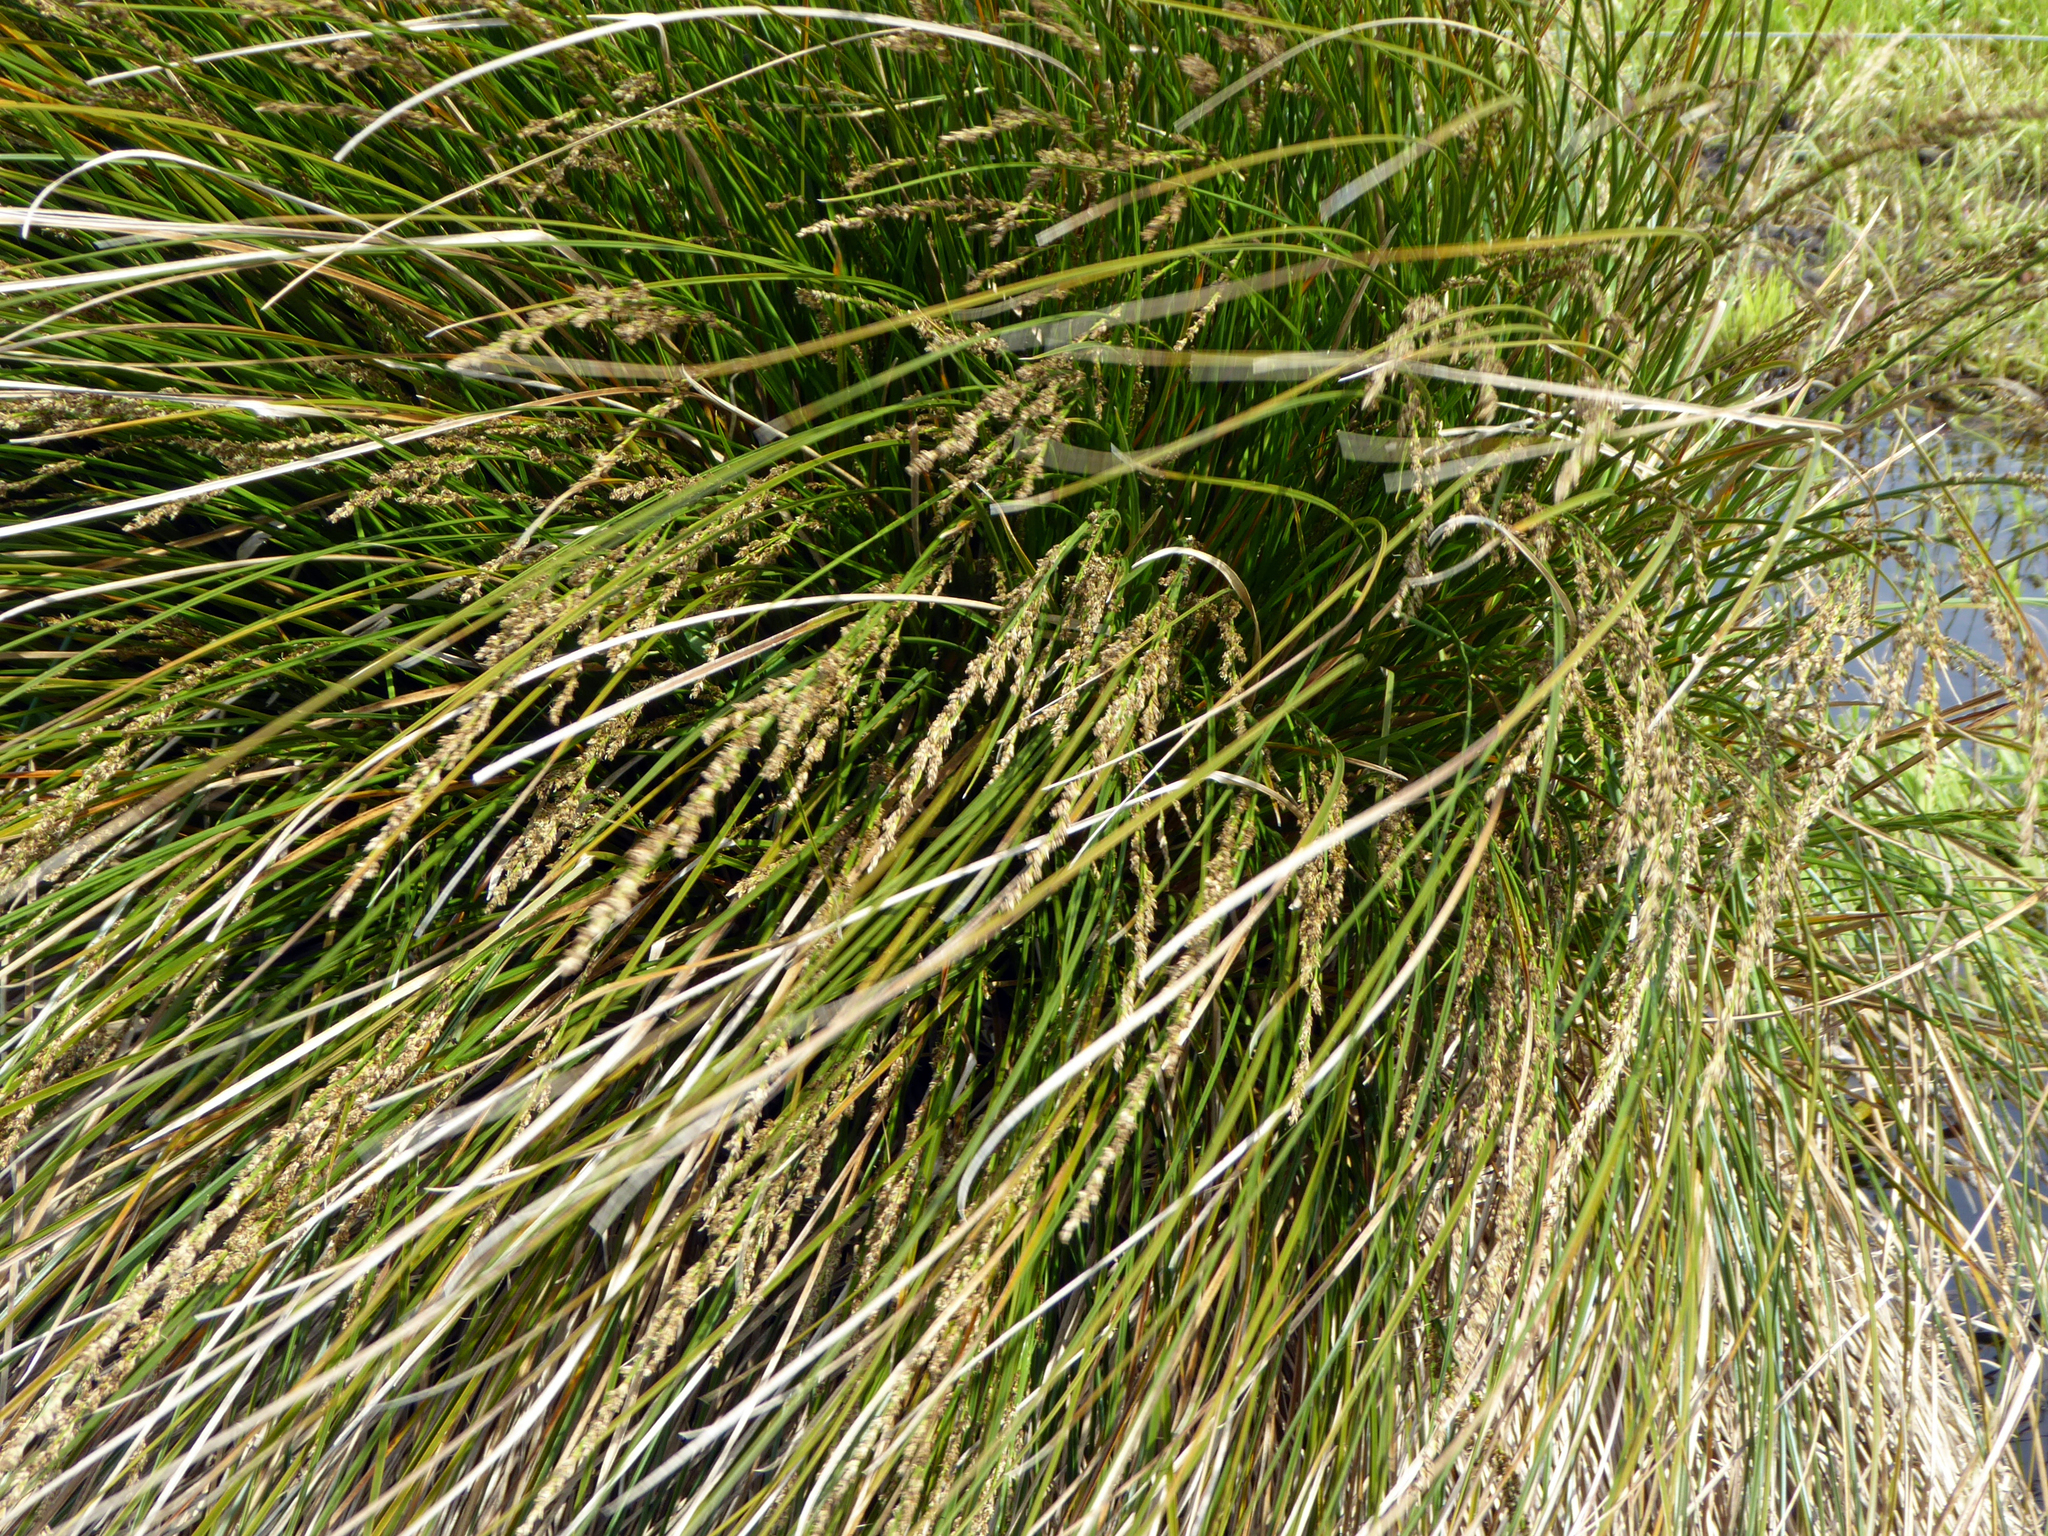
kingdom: Plantae
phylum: Tracheophyta
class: Liliopsida
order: Poales
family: Cyperaceae
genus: Carex
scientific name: Carex secta
